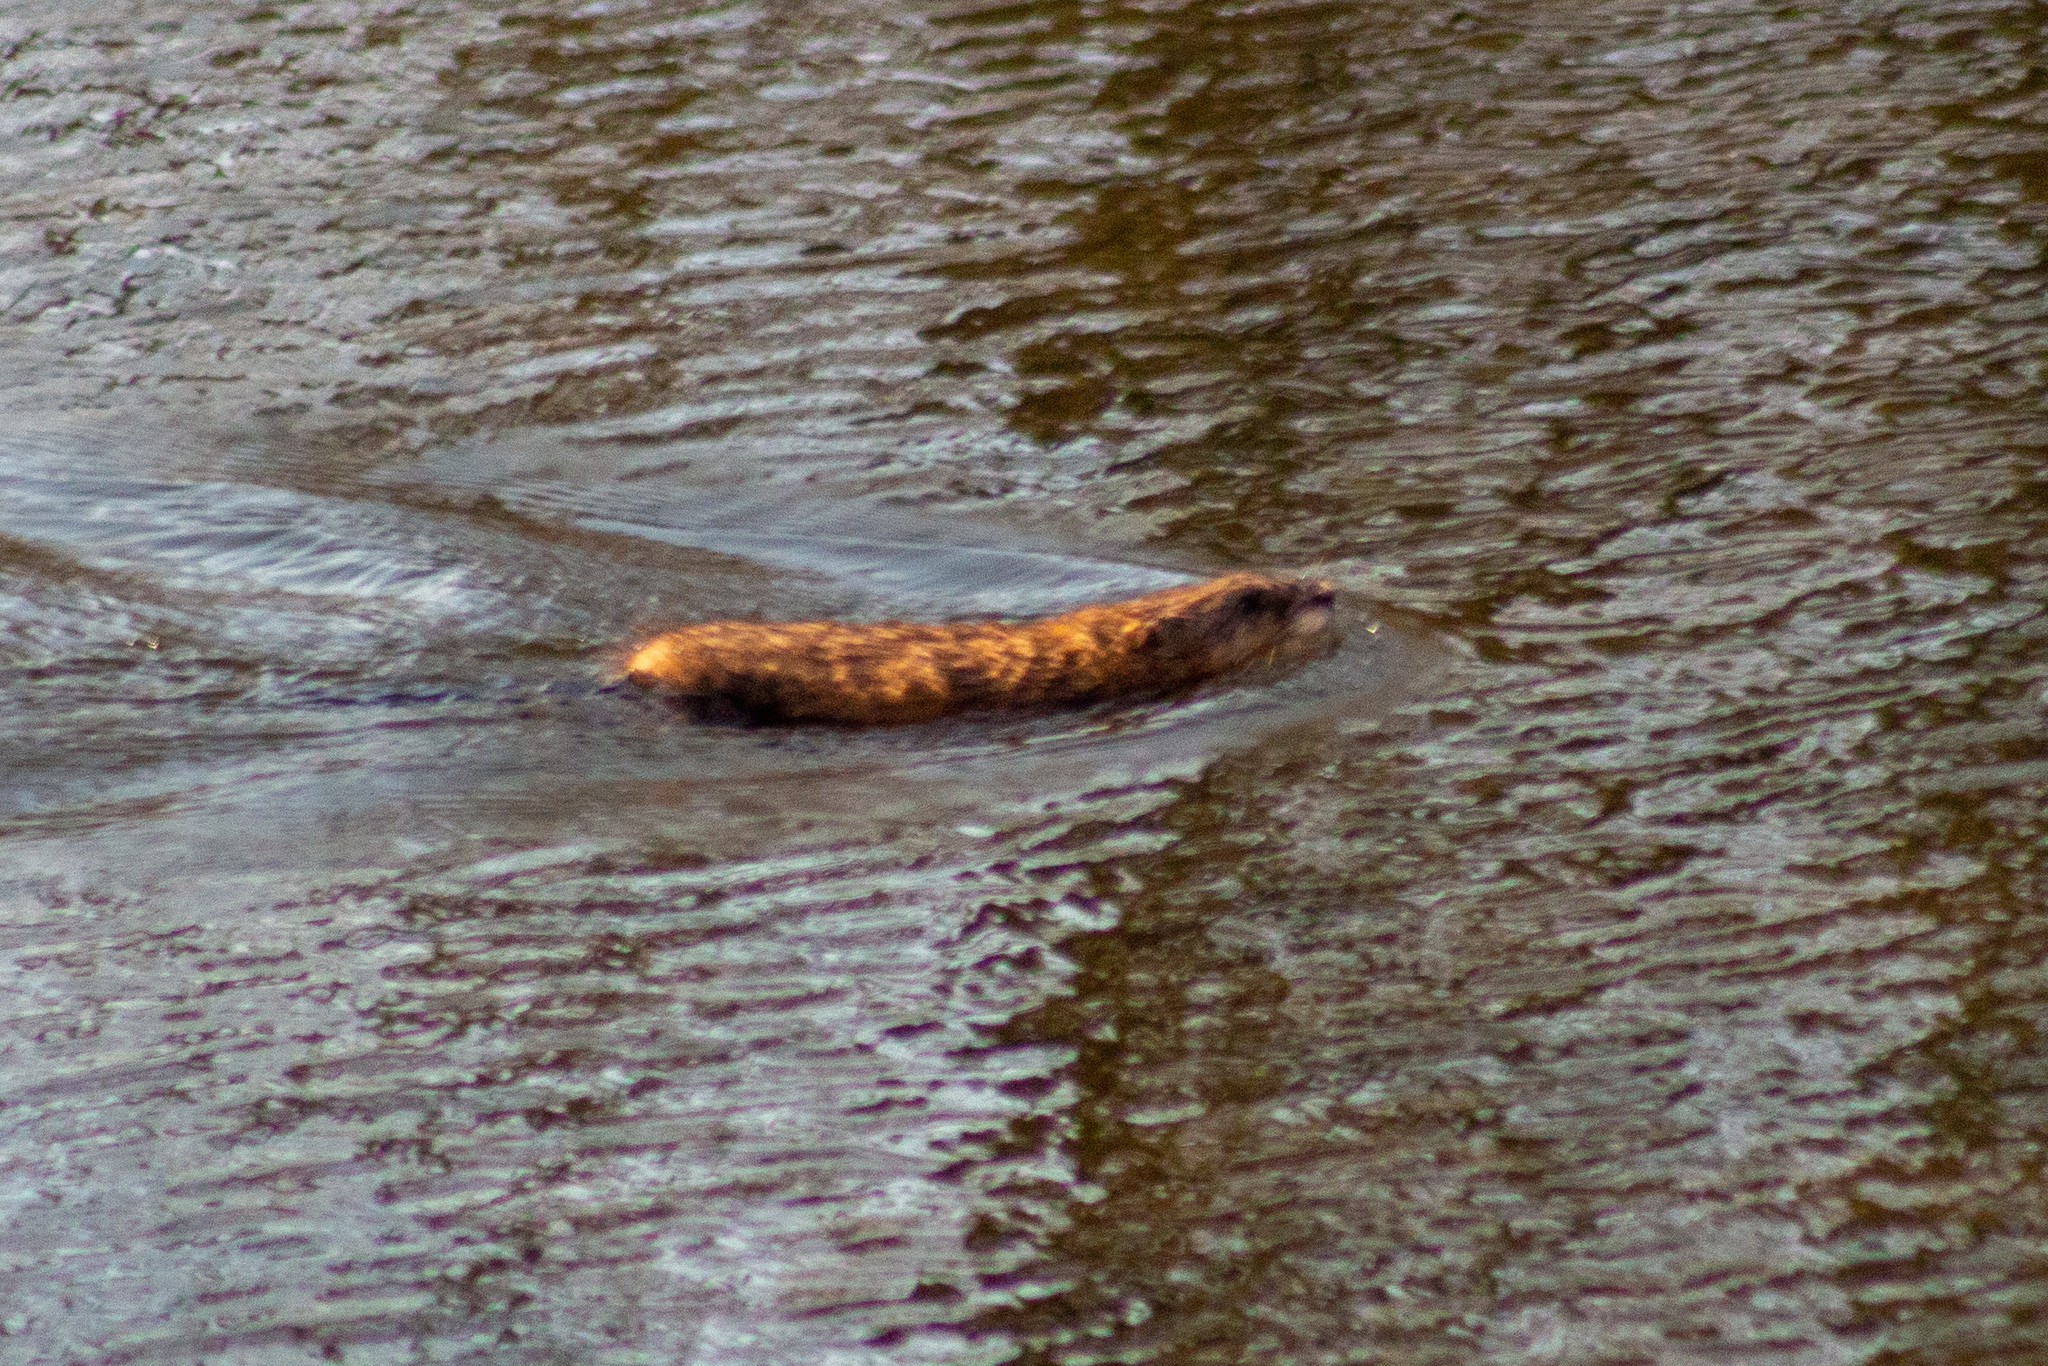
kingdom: Animalia
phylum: Chordata
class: Mammalia
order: Rodentia
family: Cricetidae
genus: Ondatra
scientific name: Ondatra zibethicus
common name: Muskrat
